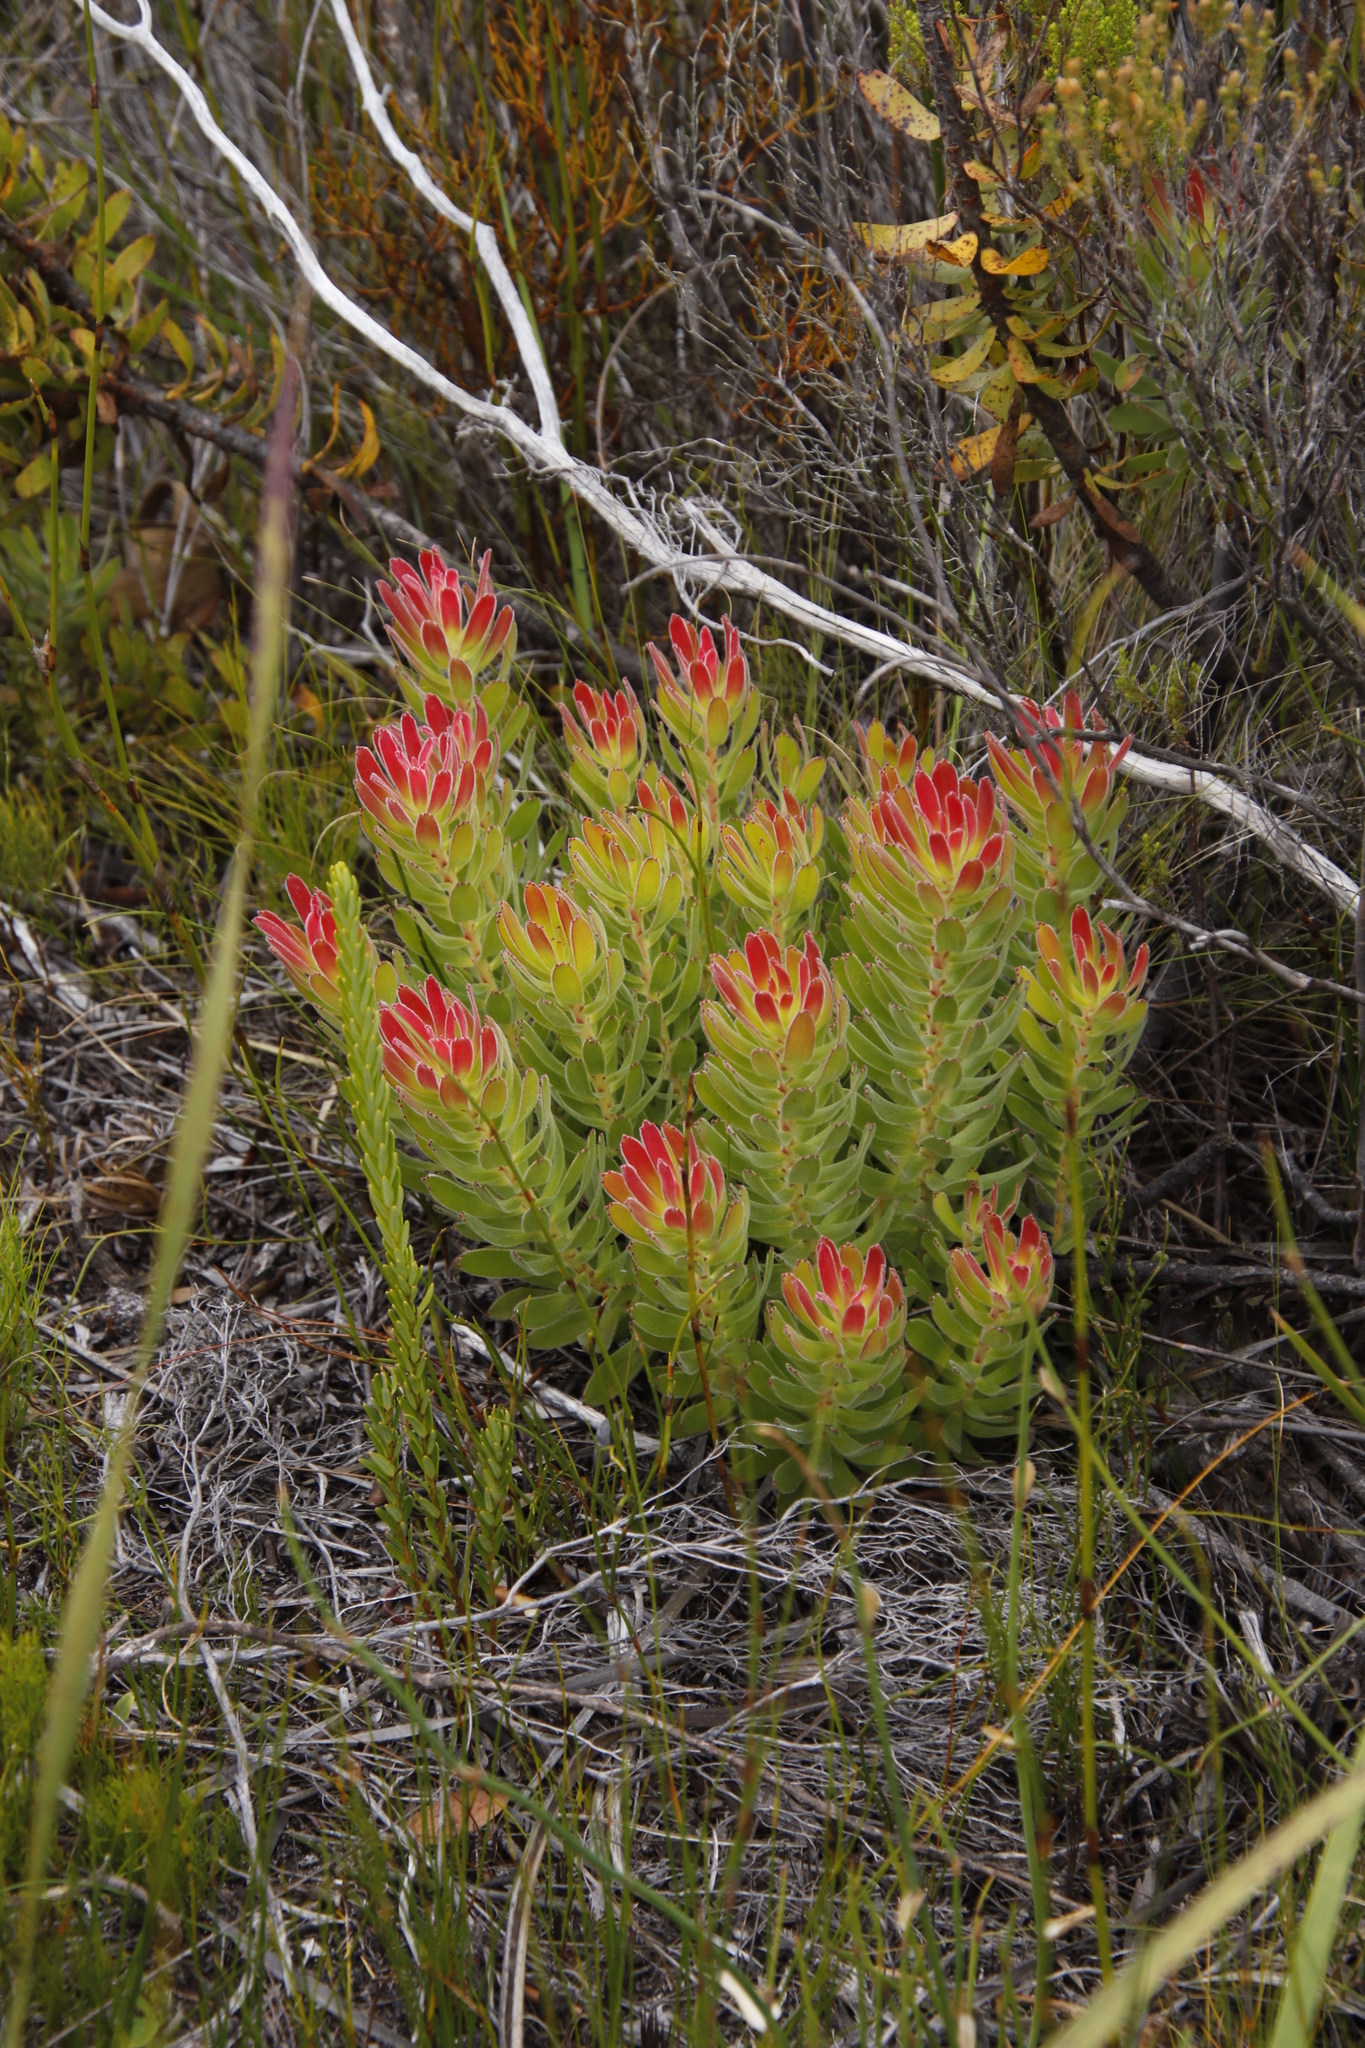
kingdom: Plantae
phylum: Tracheophyta
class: Magnoliopsida
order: Proteales
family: Proteaceae
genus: Mimetes
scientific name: Mimetes cucullatus
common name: Common pagoda
